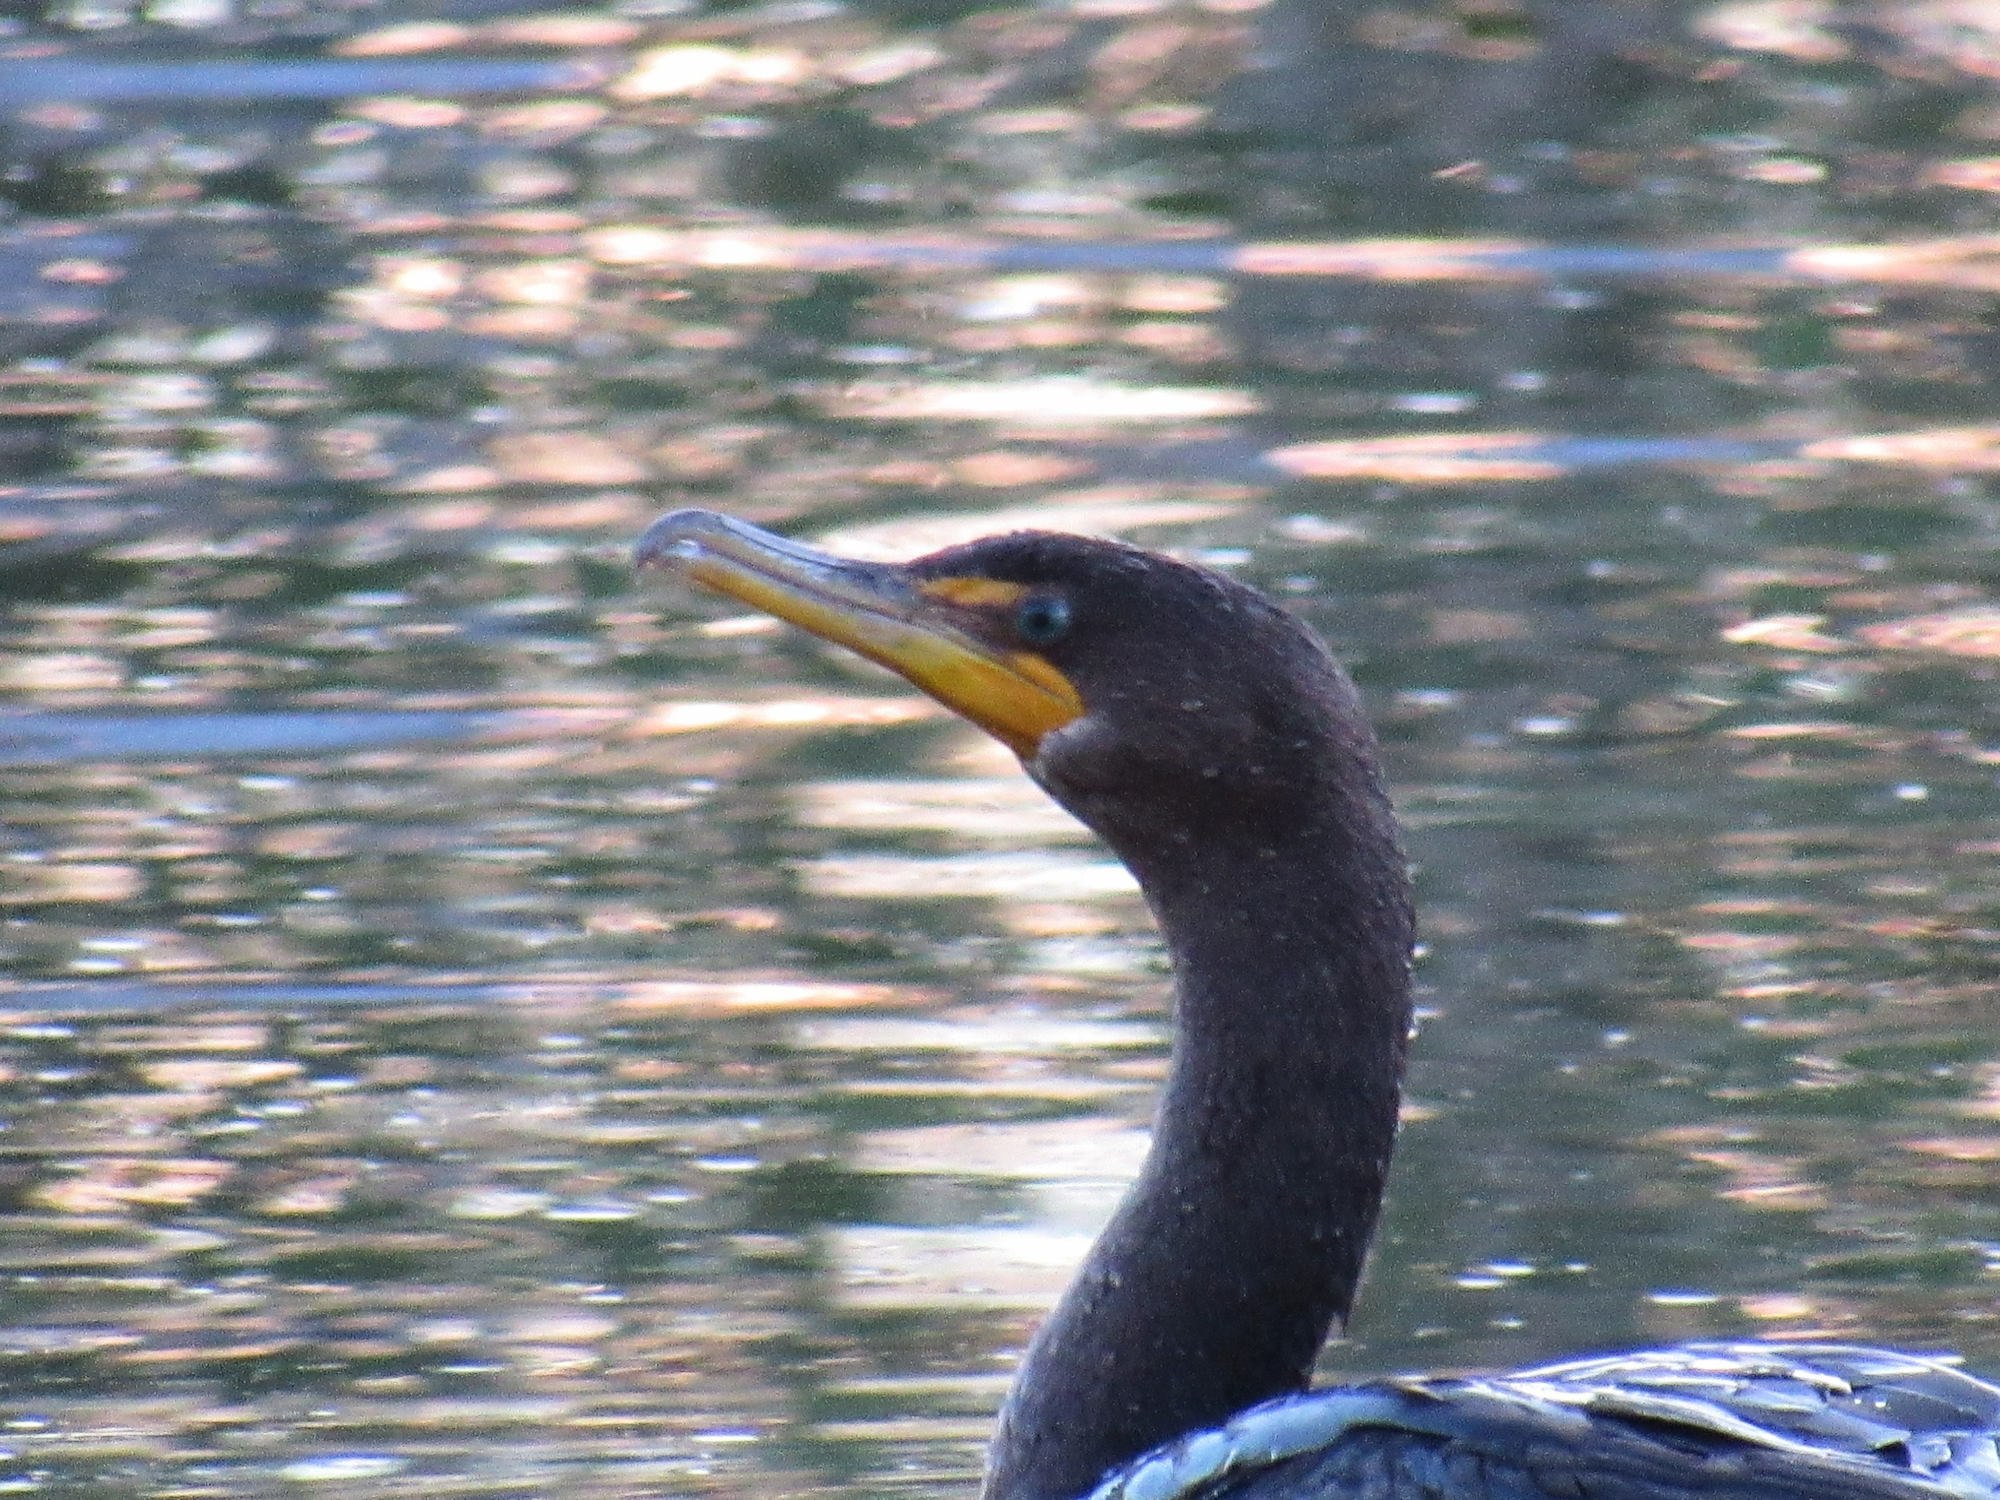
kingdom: Animalia
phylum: Chordata
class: Aves
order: Suliformes
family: Phalacrocoracidae
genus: Phalacrocorax
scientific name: Phalacrocorax auritus
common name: Double-crested cormorant
